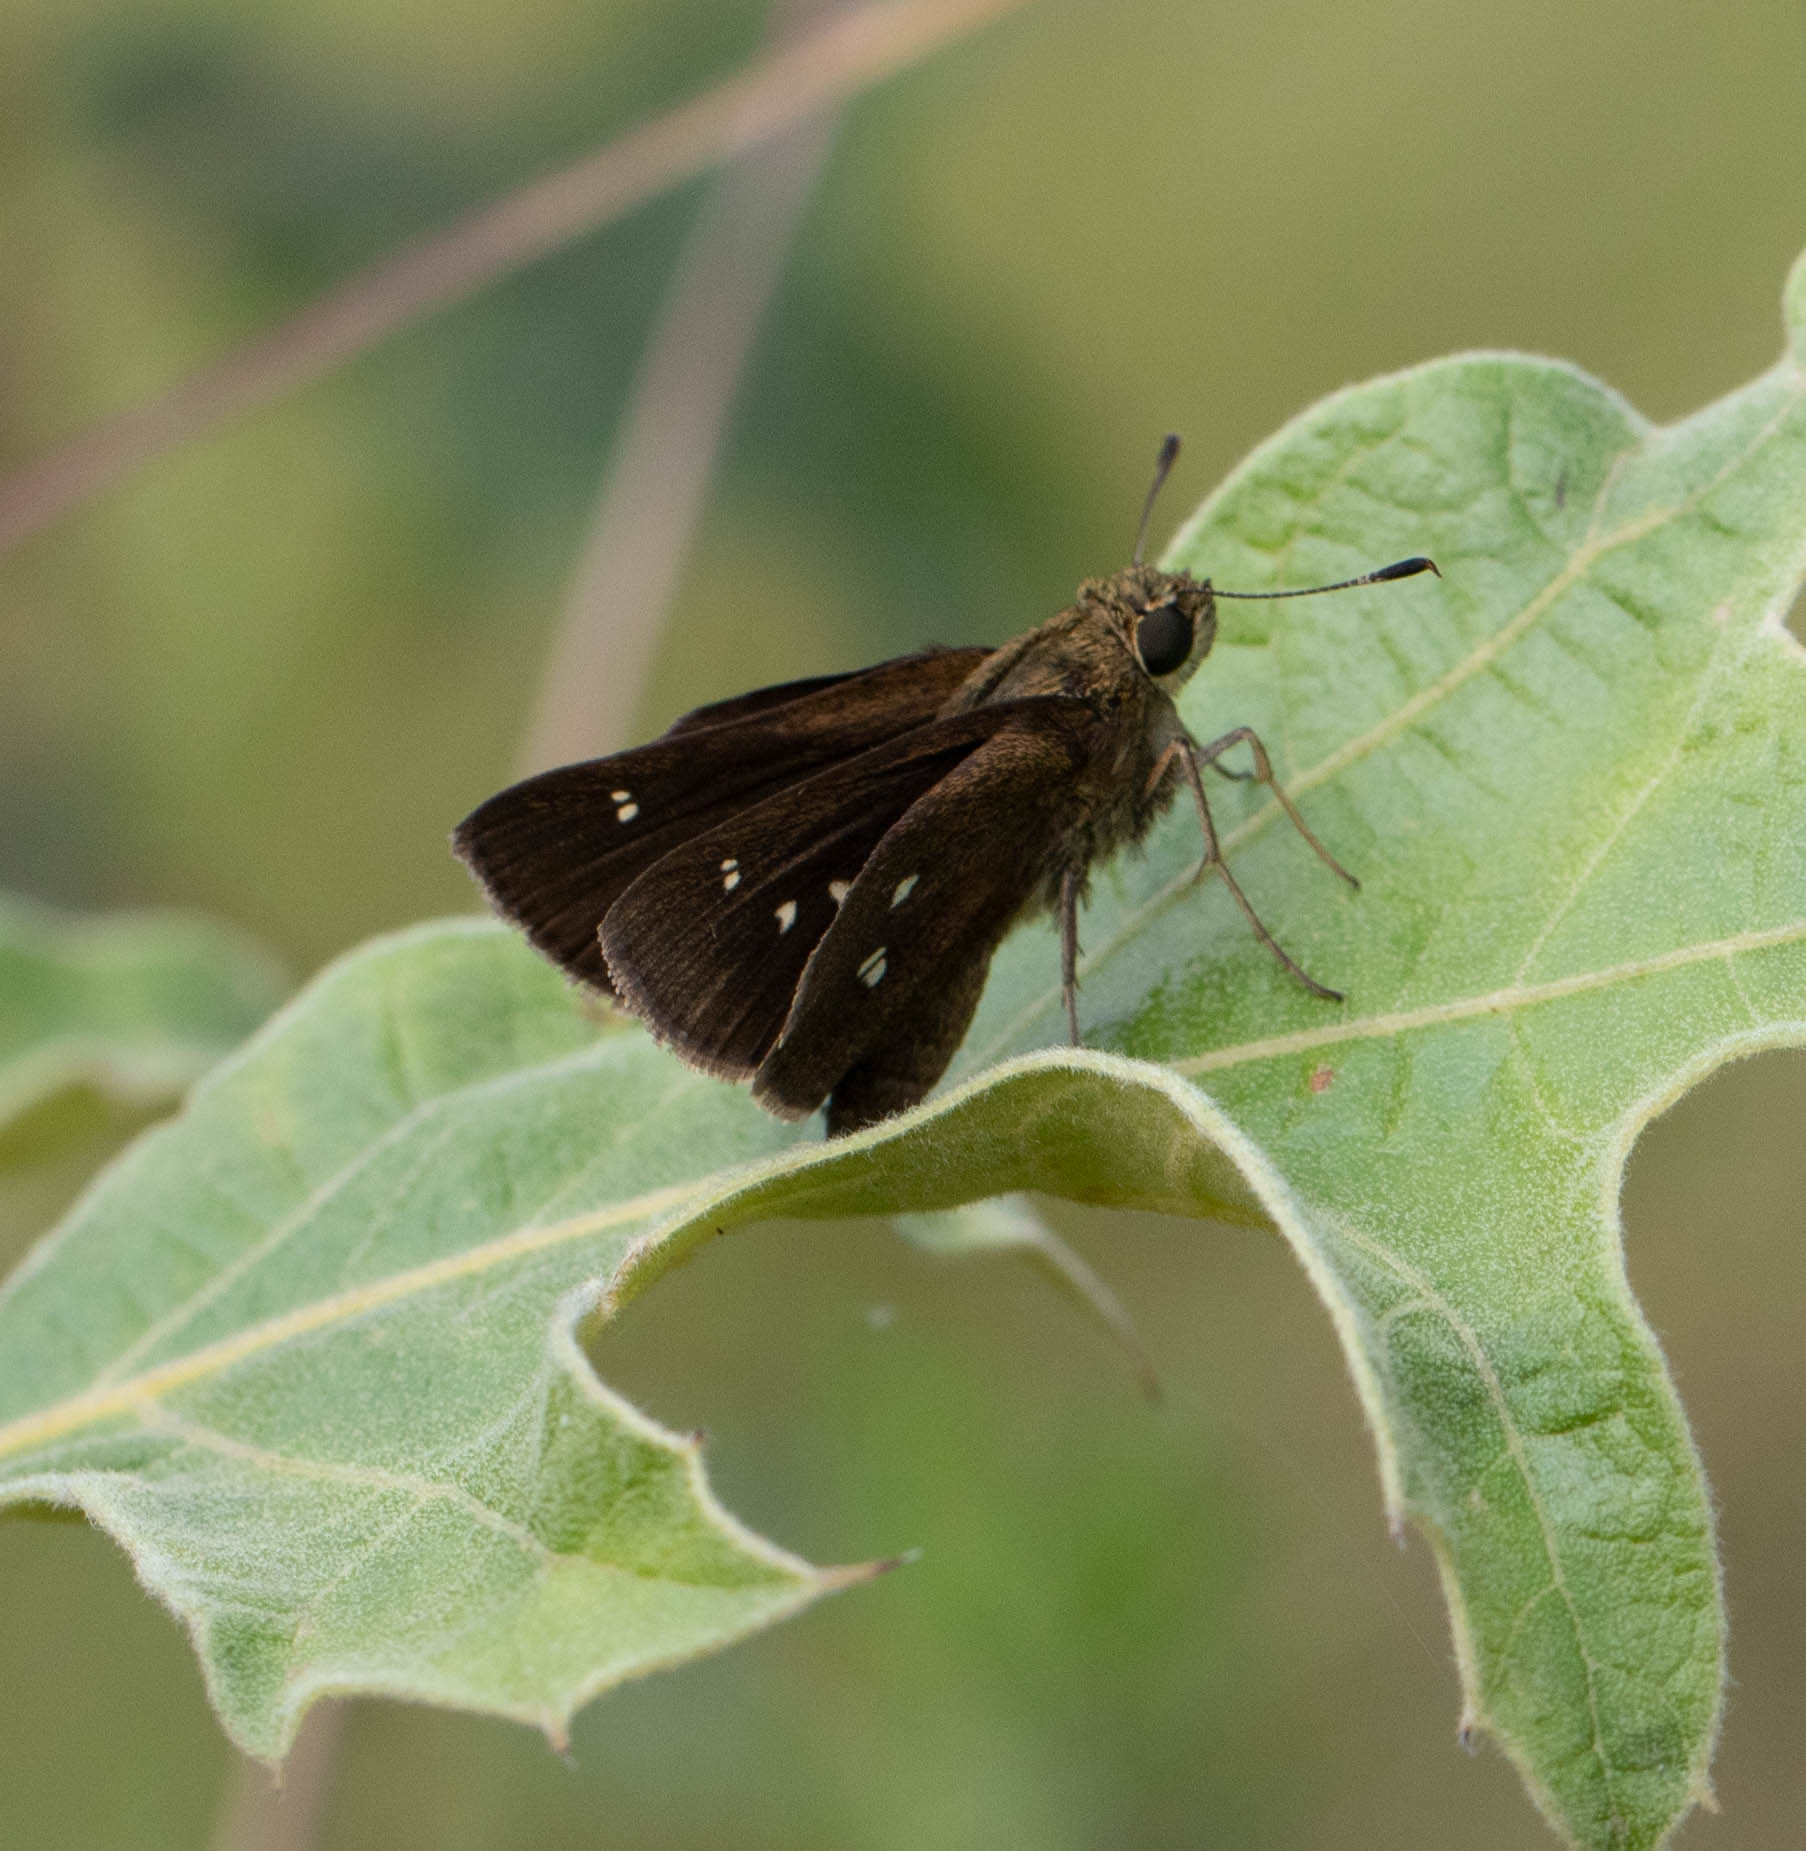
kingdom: Animalia
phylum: Arthropoda
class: Insecta
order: Lepidoptera
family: Hesperiidae
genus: Oligoria
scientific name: Oligoria maculata
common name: Twin-spot skipper
